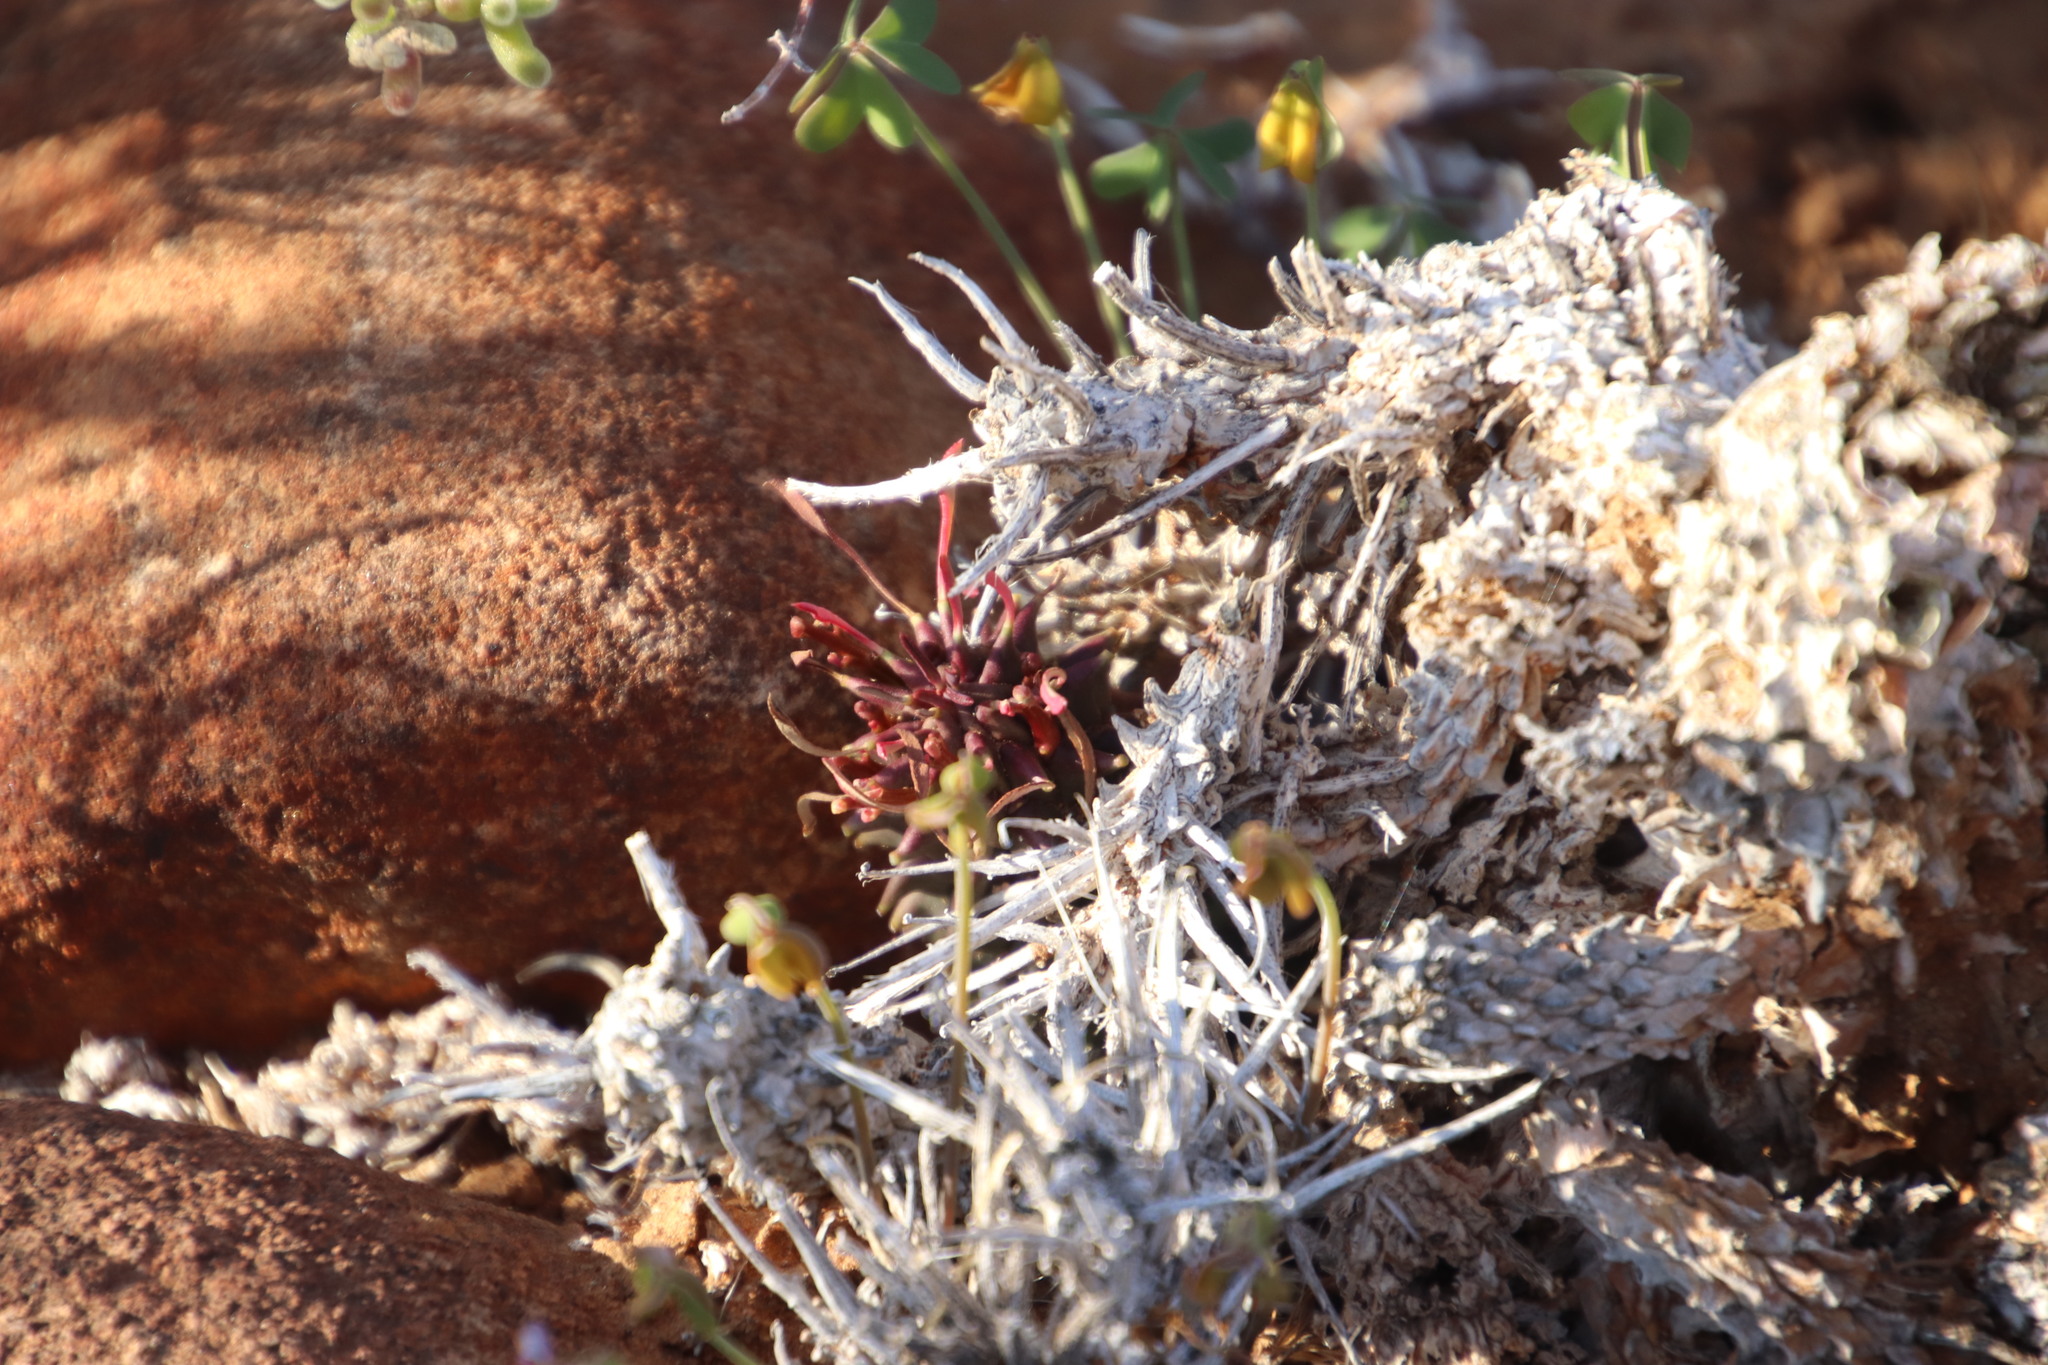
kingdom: Plantae
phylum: Tracheophyta
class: Magnoliopsida
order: Malpighiales
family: Euphorbiaceae
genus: Euphorbia
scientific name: Euphorbia multiceps
